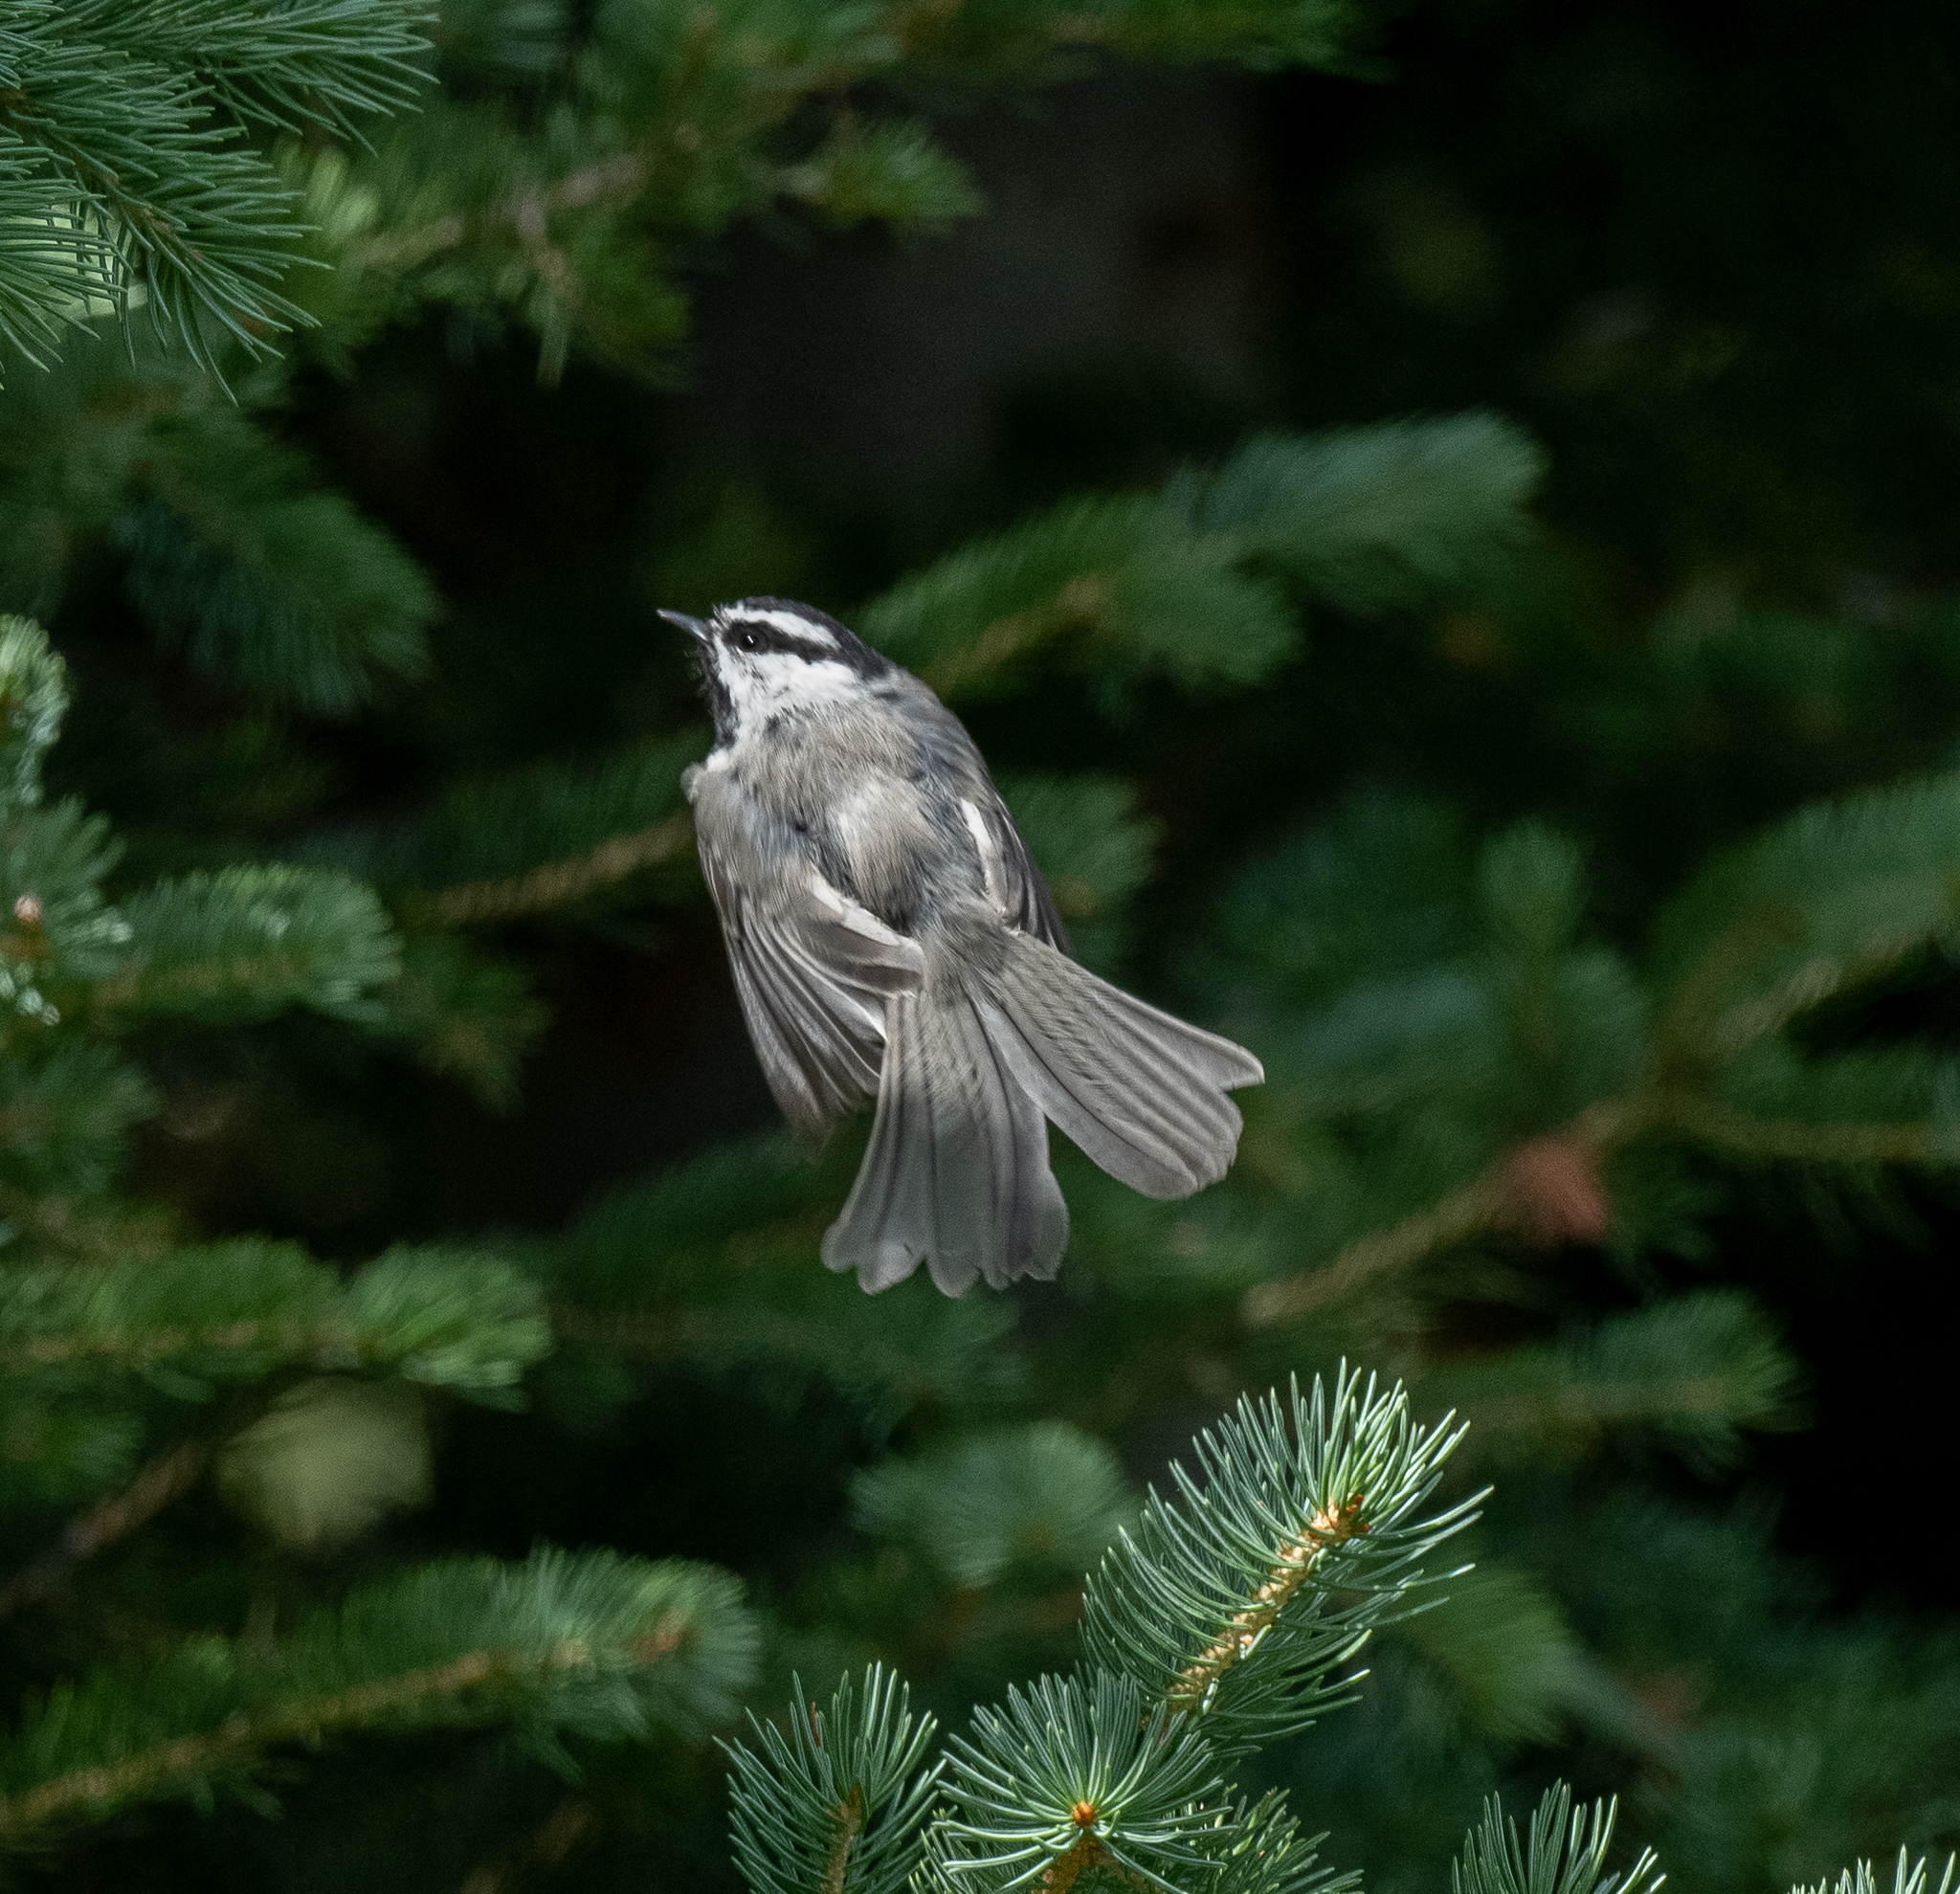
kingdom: Animalia
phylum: Chordata
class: Aves
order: Passeriformes
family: Paridae
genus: Poecile
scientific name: Poecile gambeli
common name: Mountain chickadee
